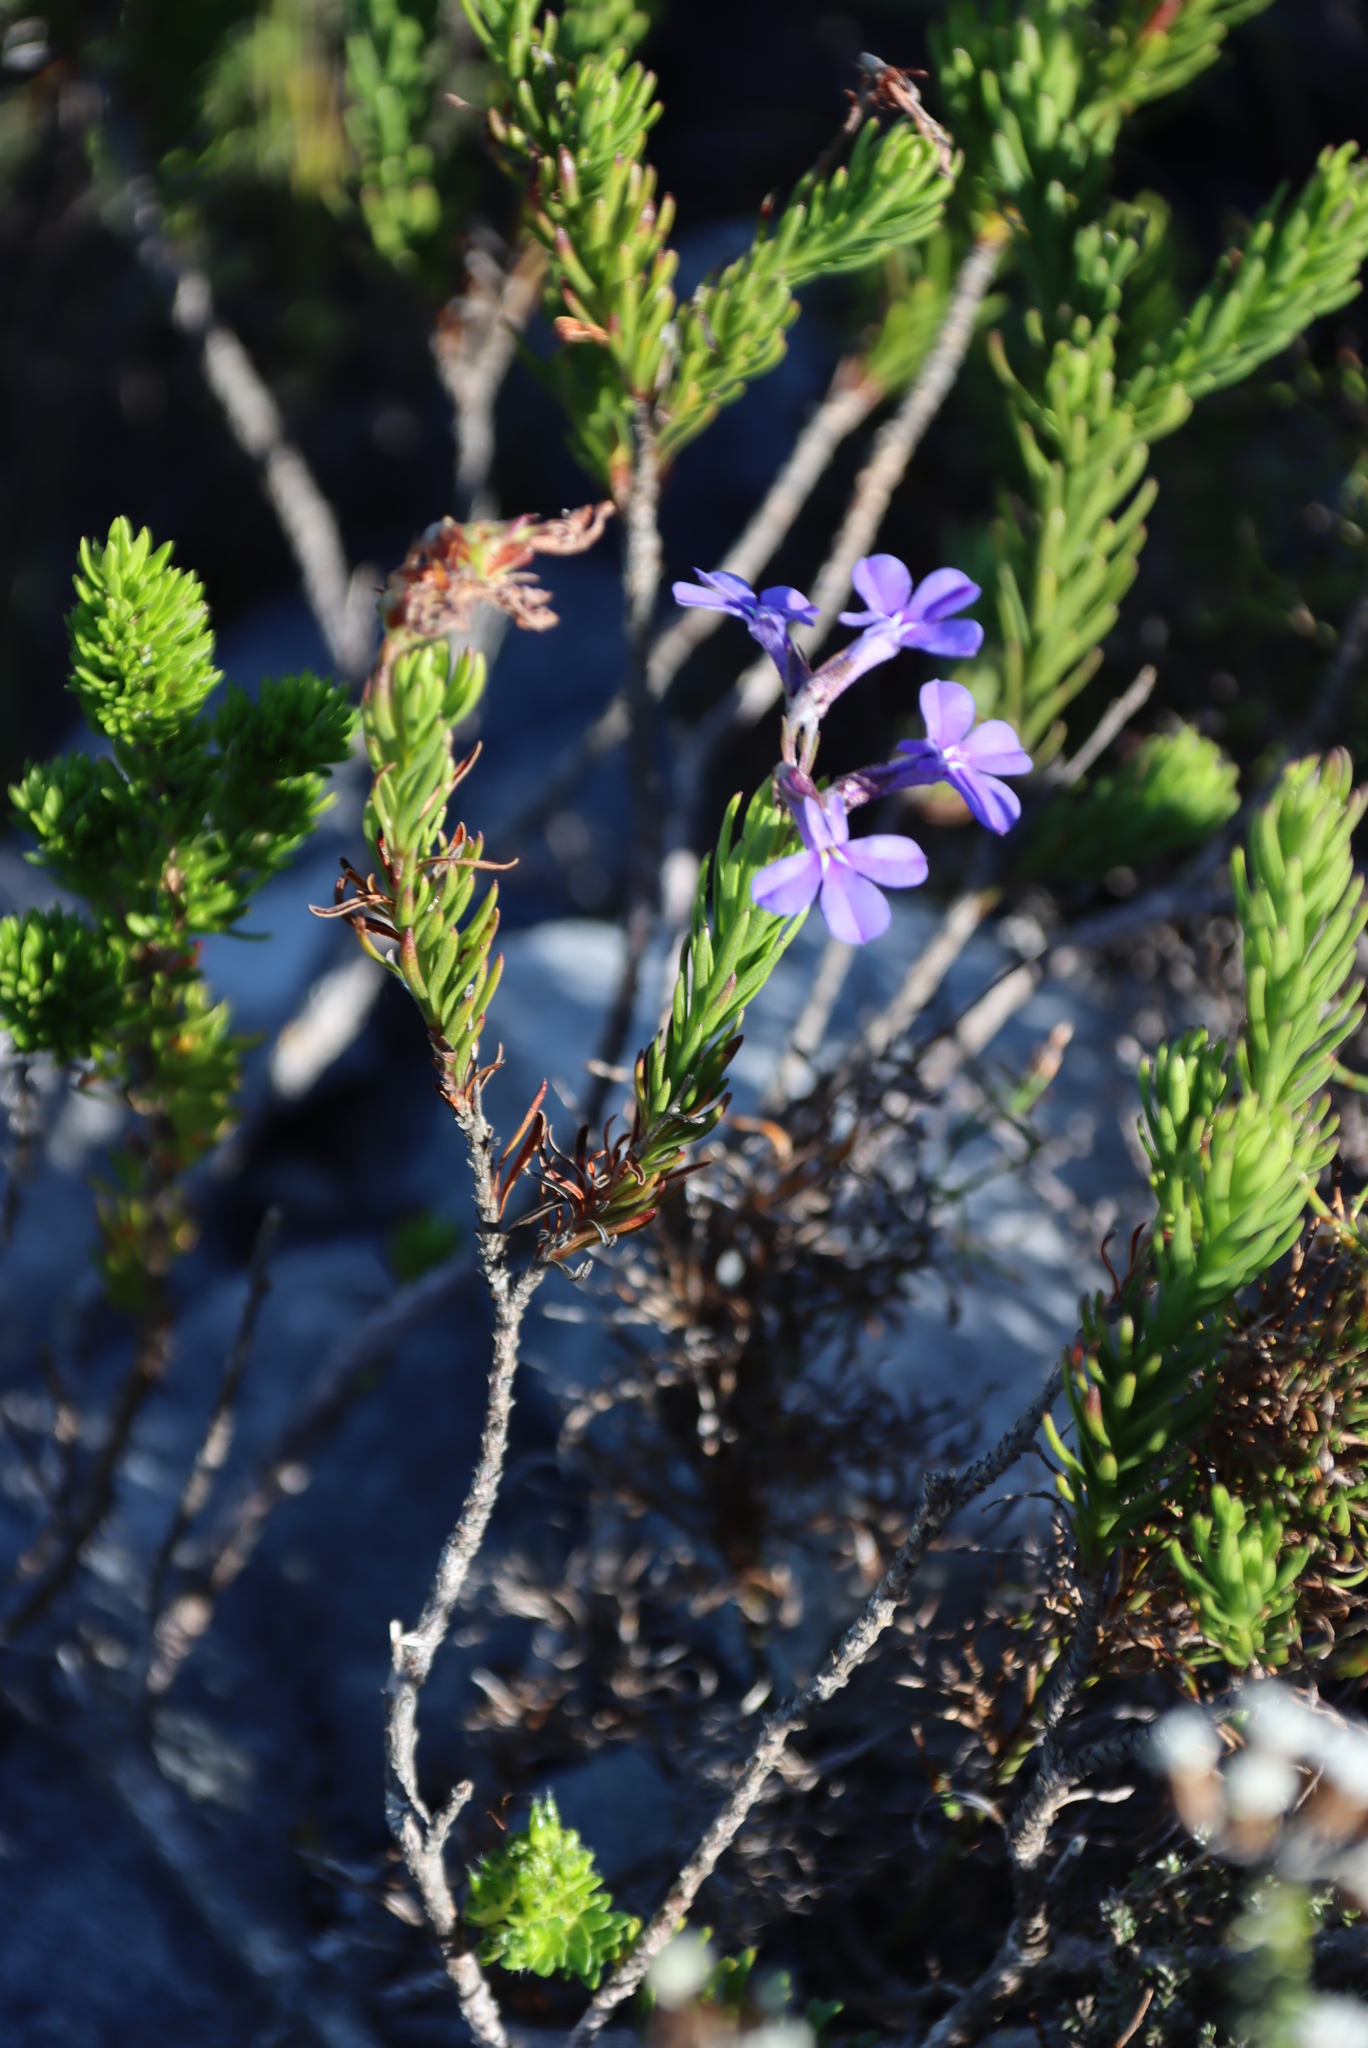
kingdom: Plantae
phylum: Tracheophyta
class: Magnoliopsida
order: Asterales
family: Campanulaceae
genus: Lobelia
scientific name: Lobelia pinifolia
